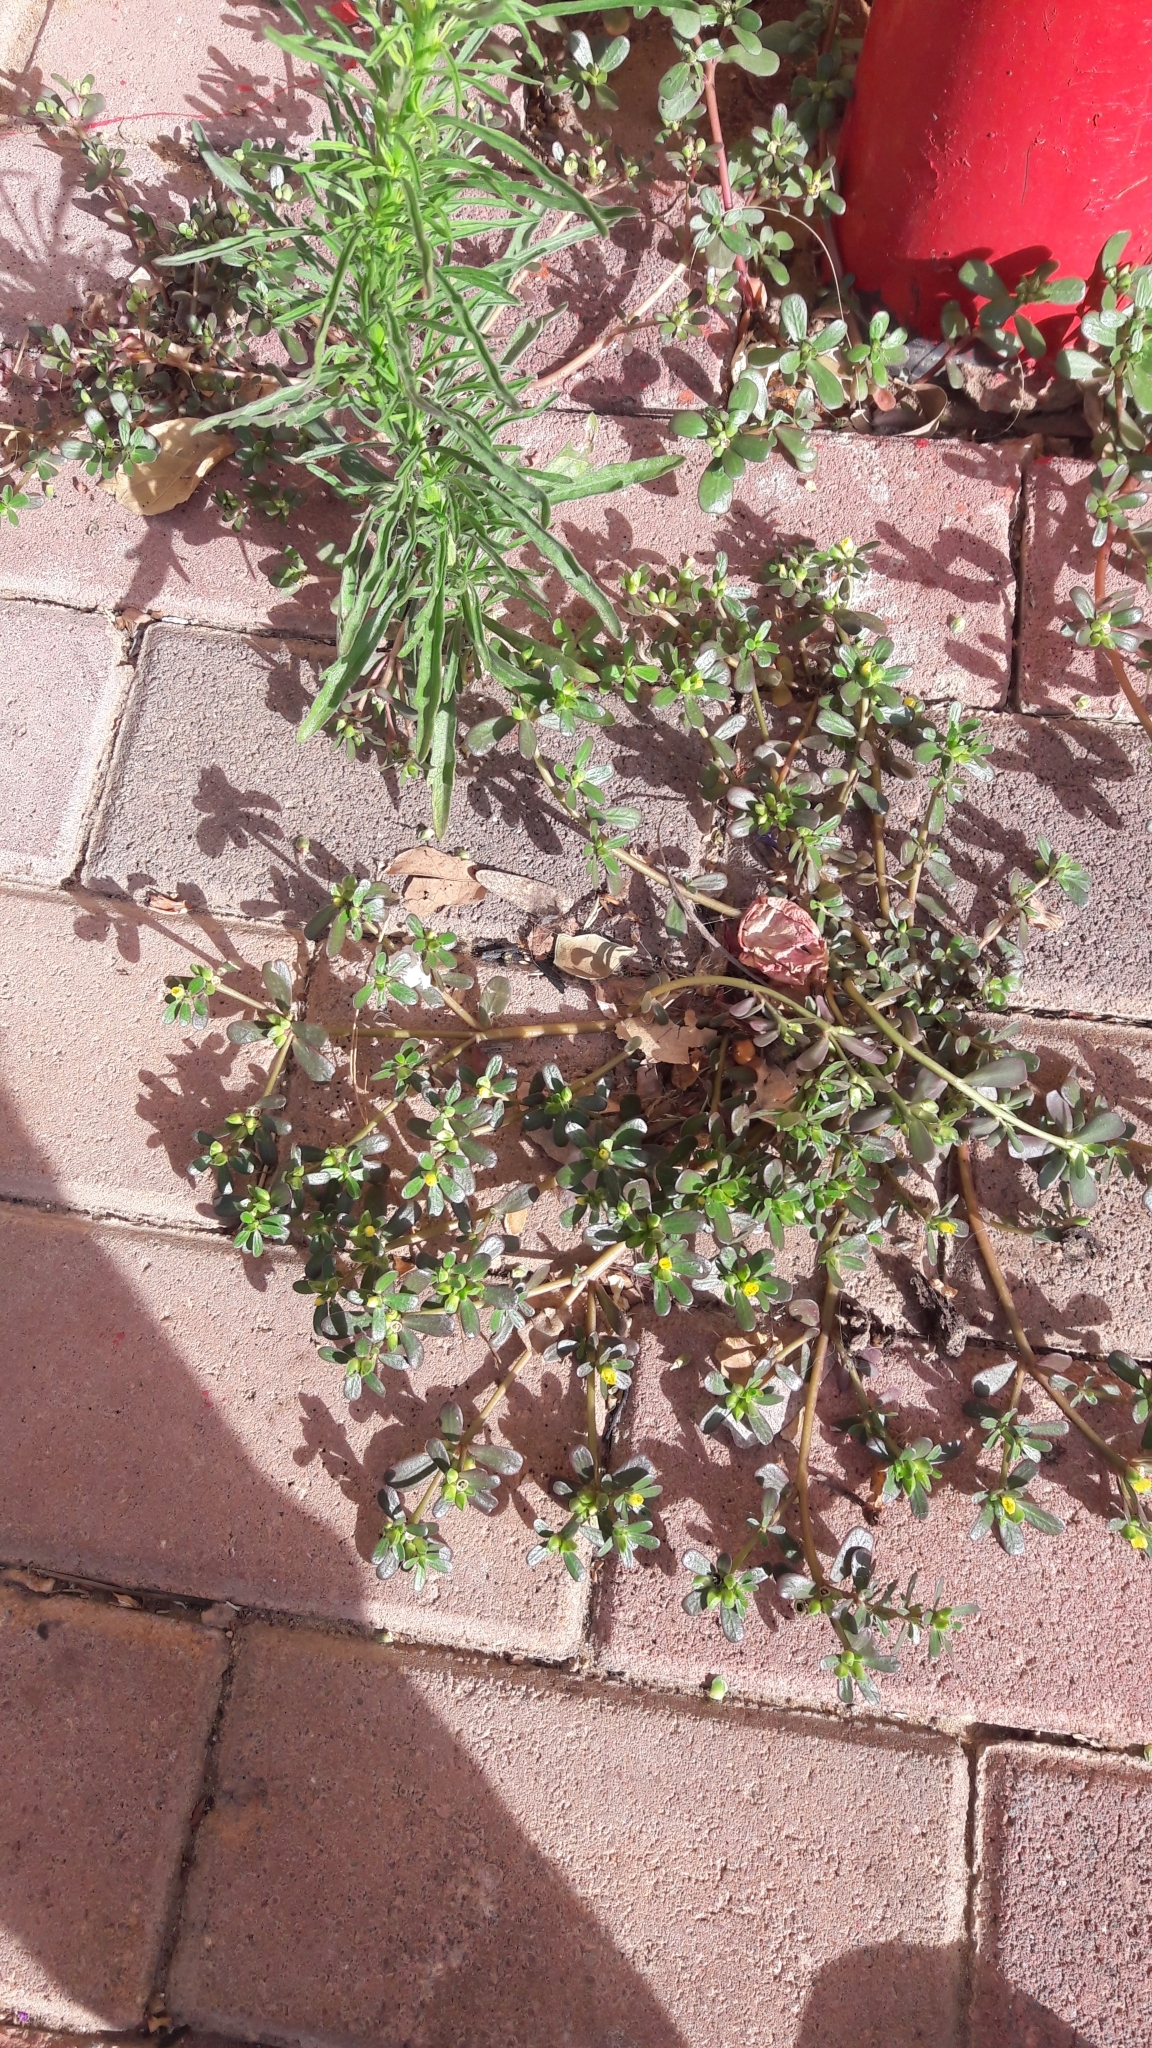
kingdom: Plantae
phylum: Tracheophyta
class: Magnoliopsida
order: Caryophyllales
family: Portulacaceae
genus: Portulaca
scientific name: Portulaca oleracea
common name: Common purslane
